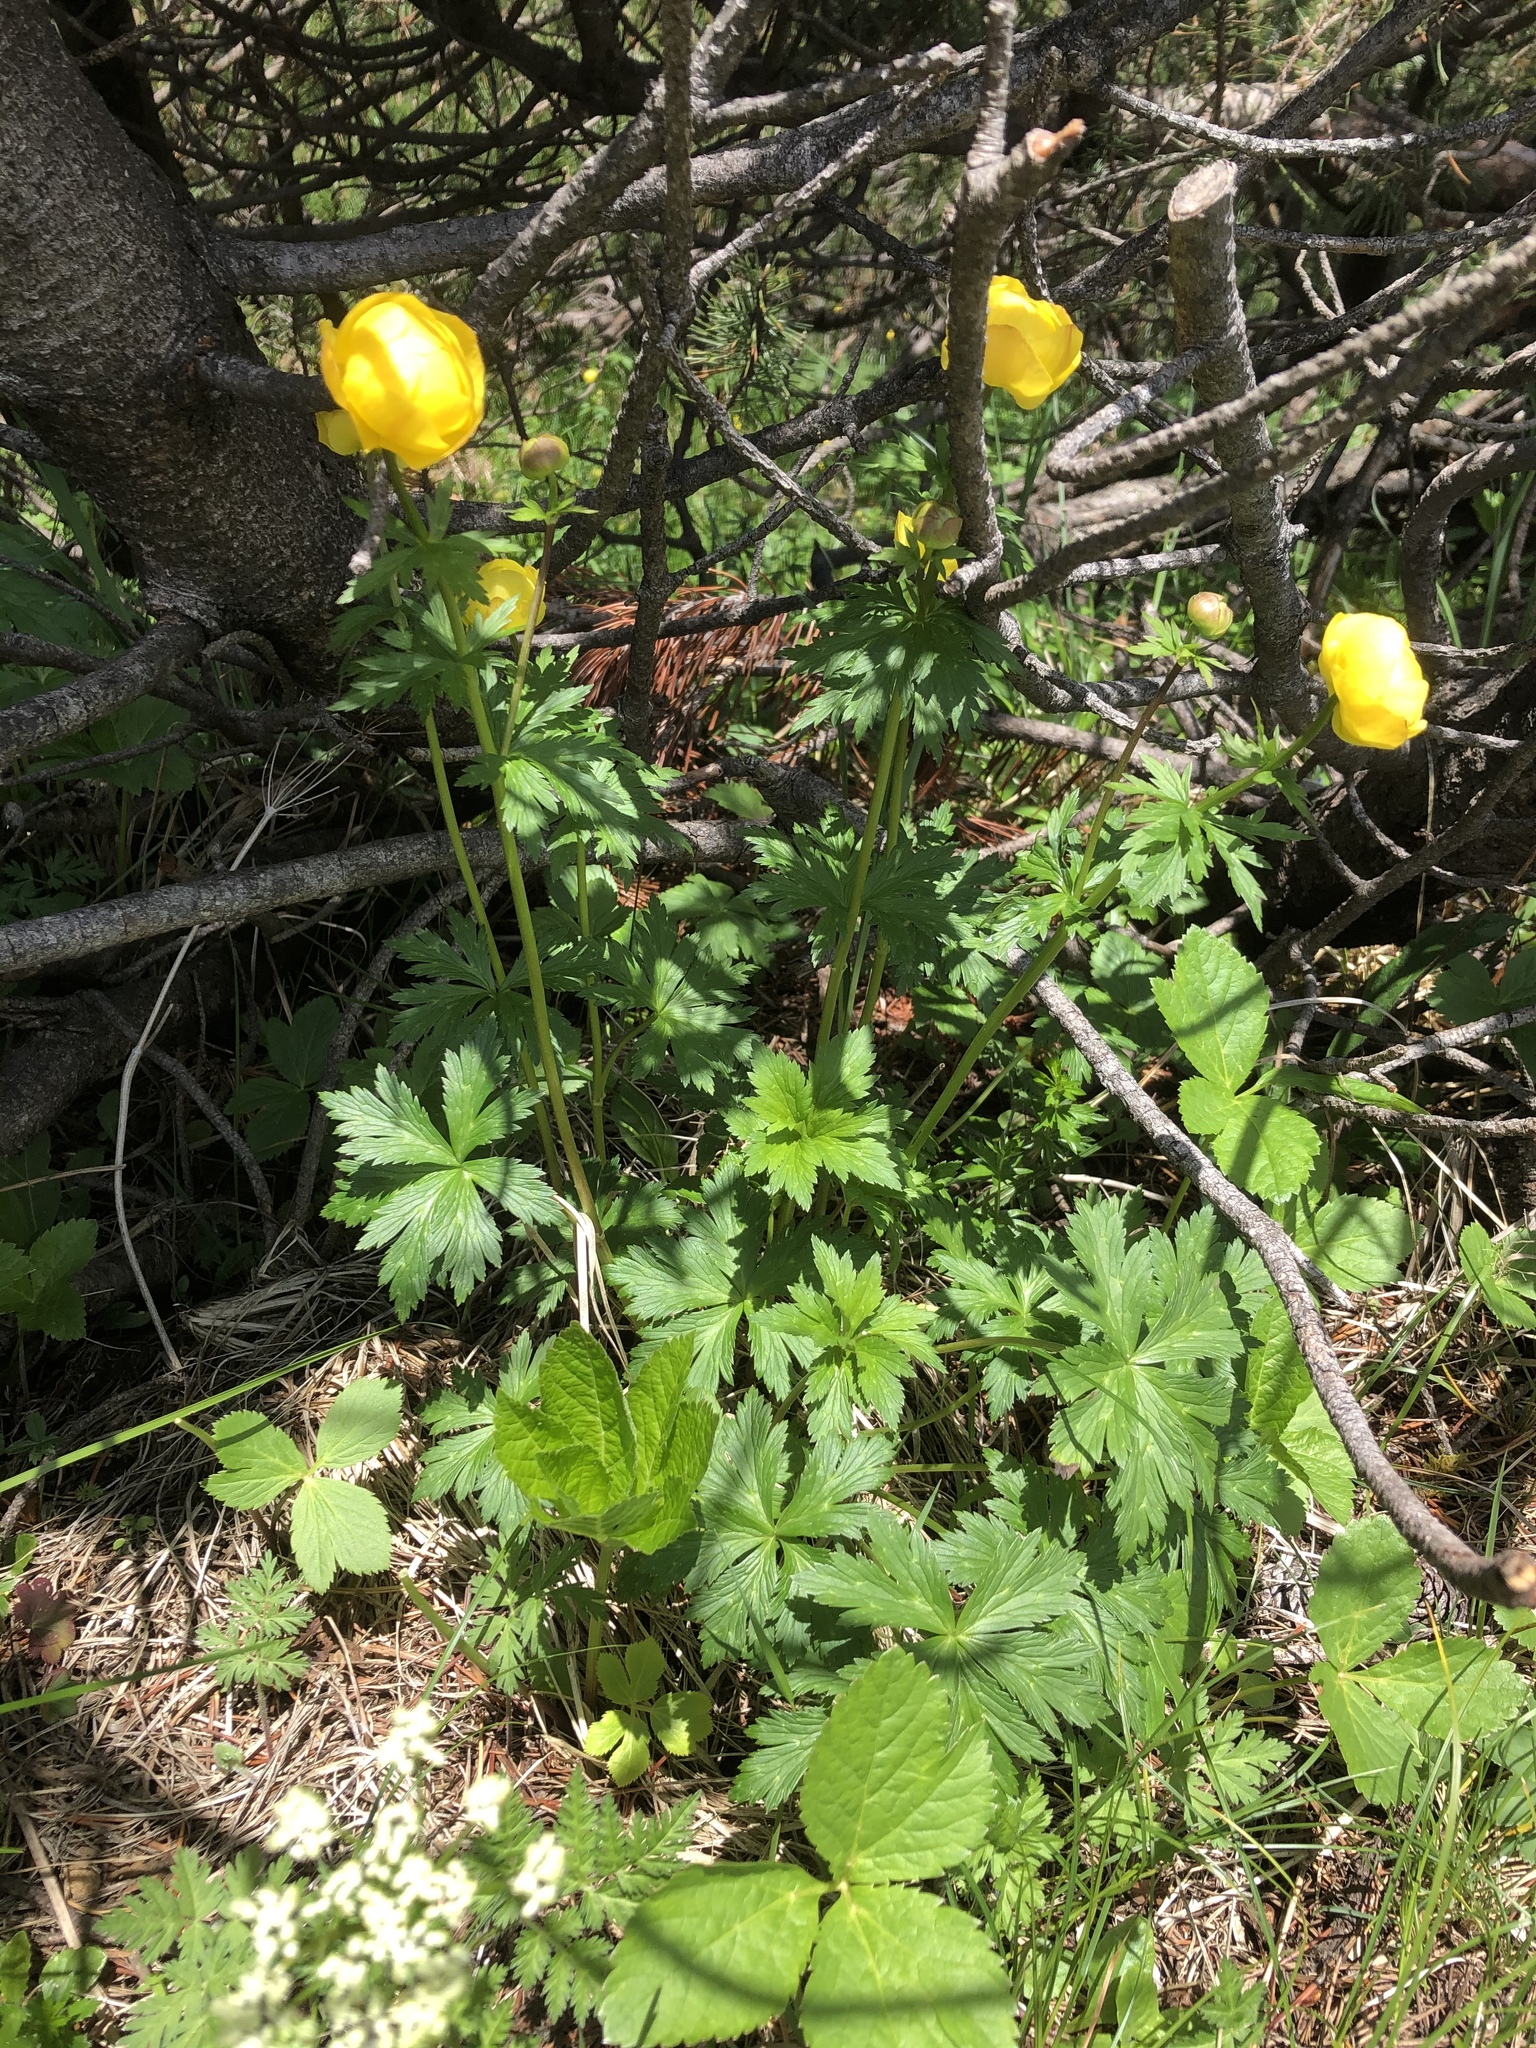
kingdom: Plantae
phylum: Tracheophyta
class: Magnoliopsida
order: Ranunculales
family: Ranunculaceae
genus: Trollius
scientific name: Trollius europaeus
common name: European globeflower
